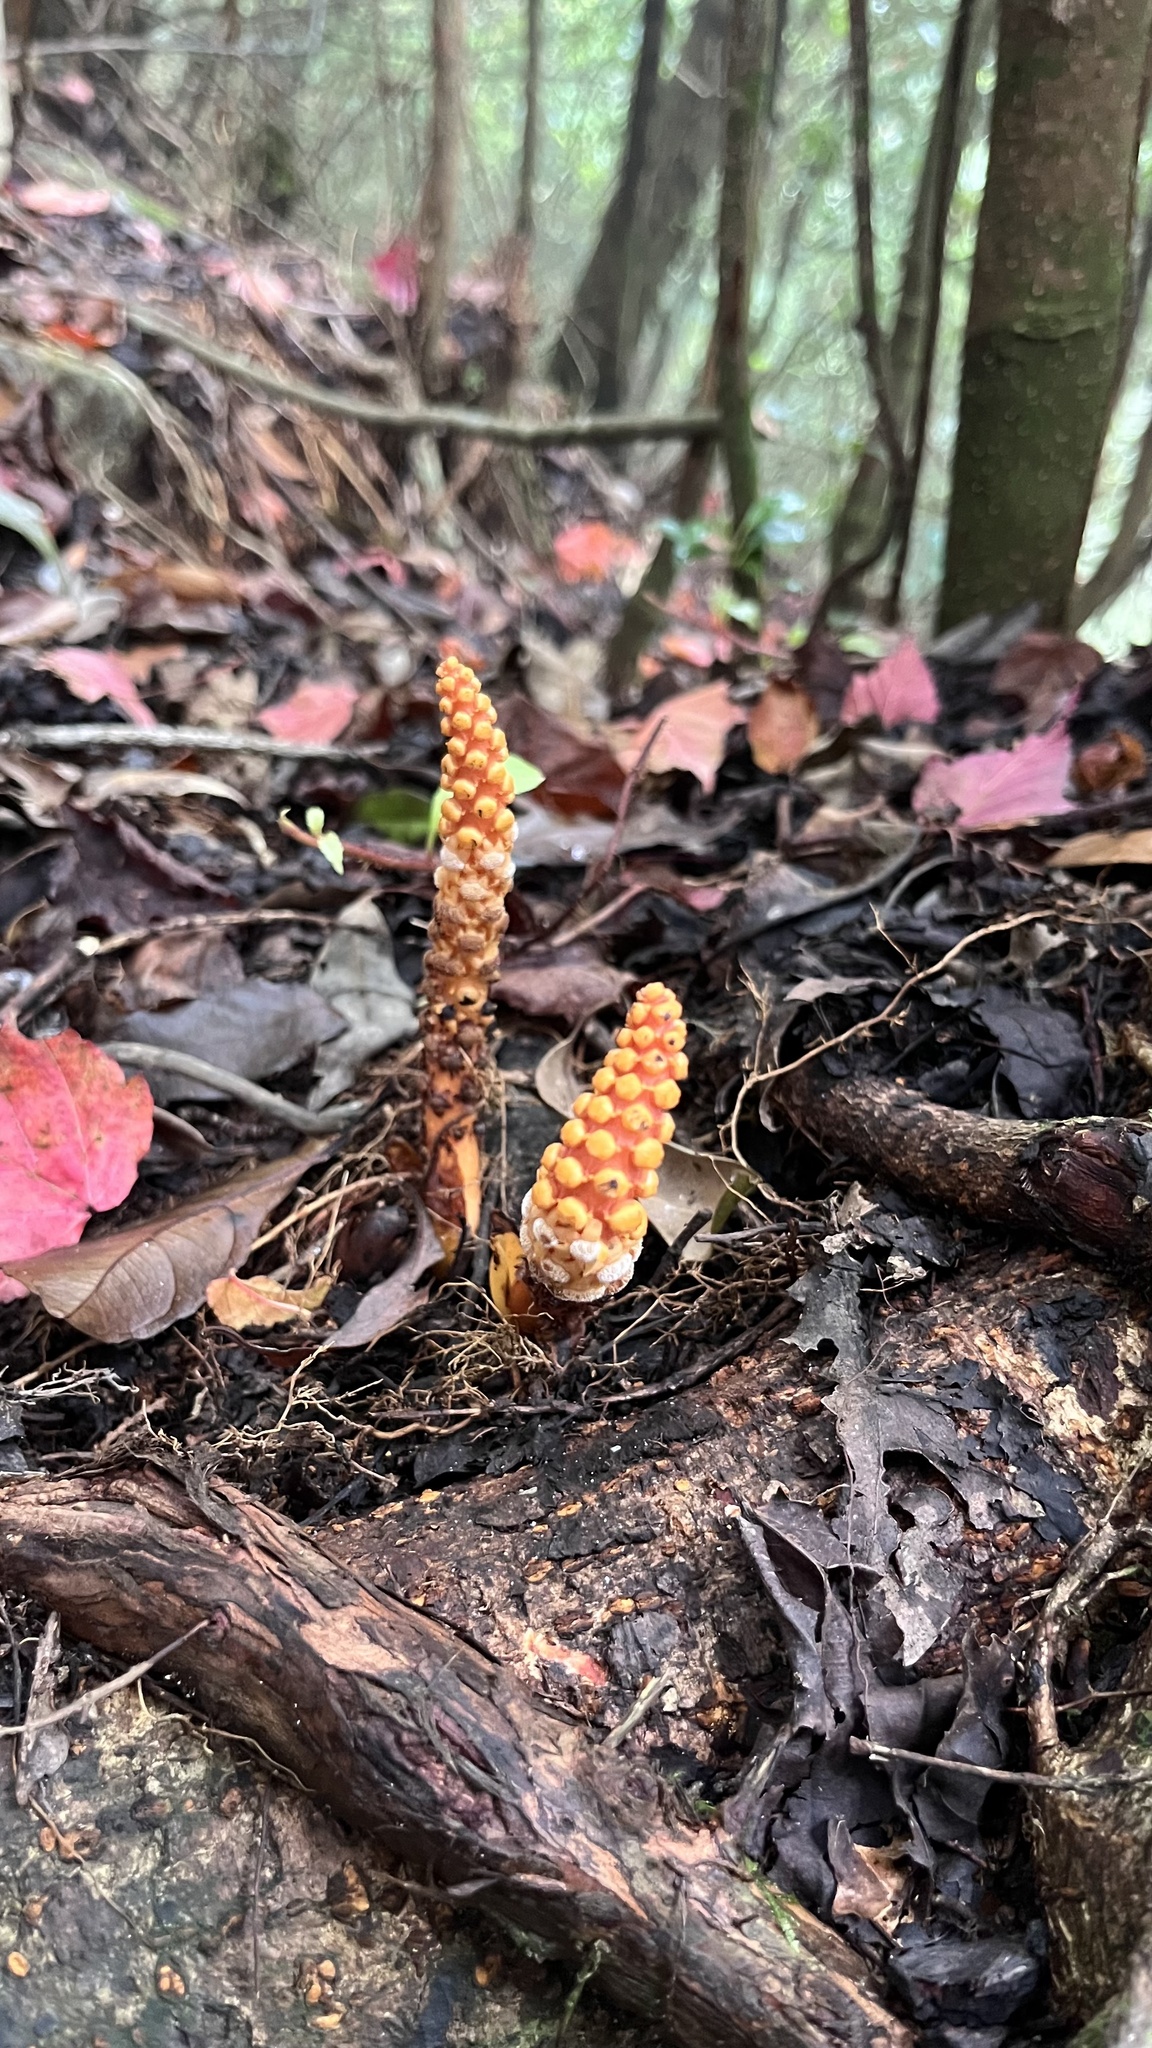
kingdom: Plantae
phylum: Tracheophyta
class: Magnoliopsida
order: Santalales
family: Balanophoraceae
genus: Balanophora
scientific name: Balanophora laxiflora
